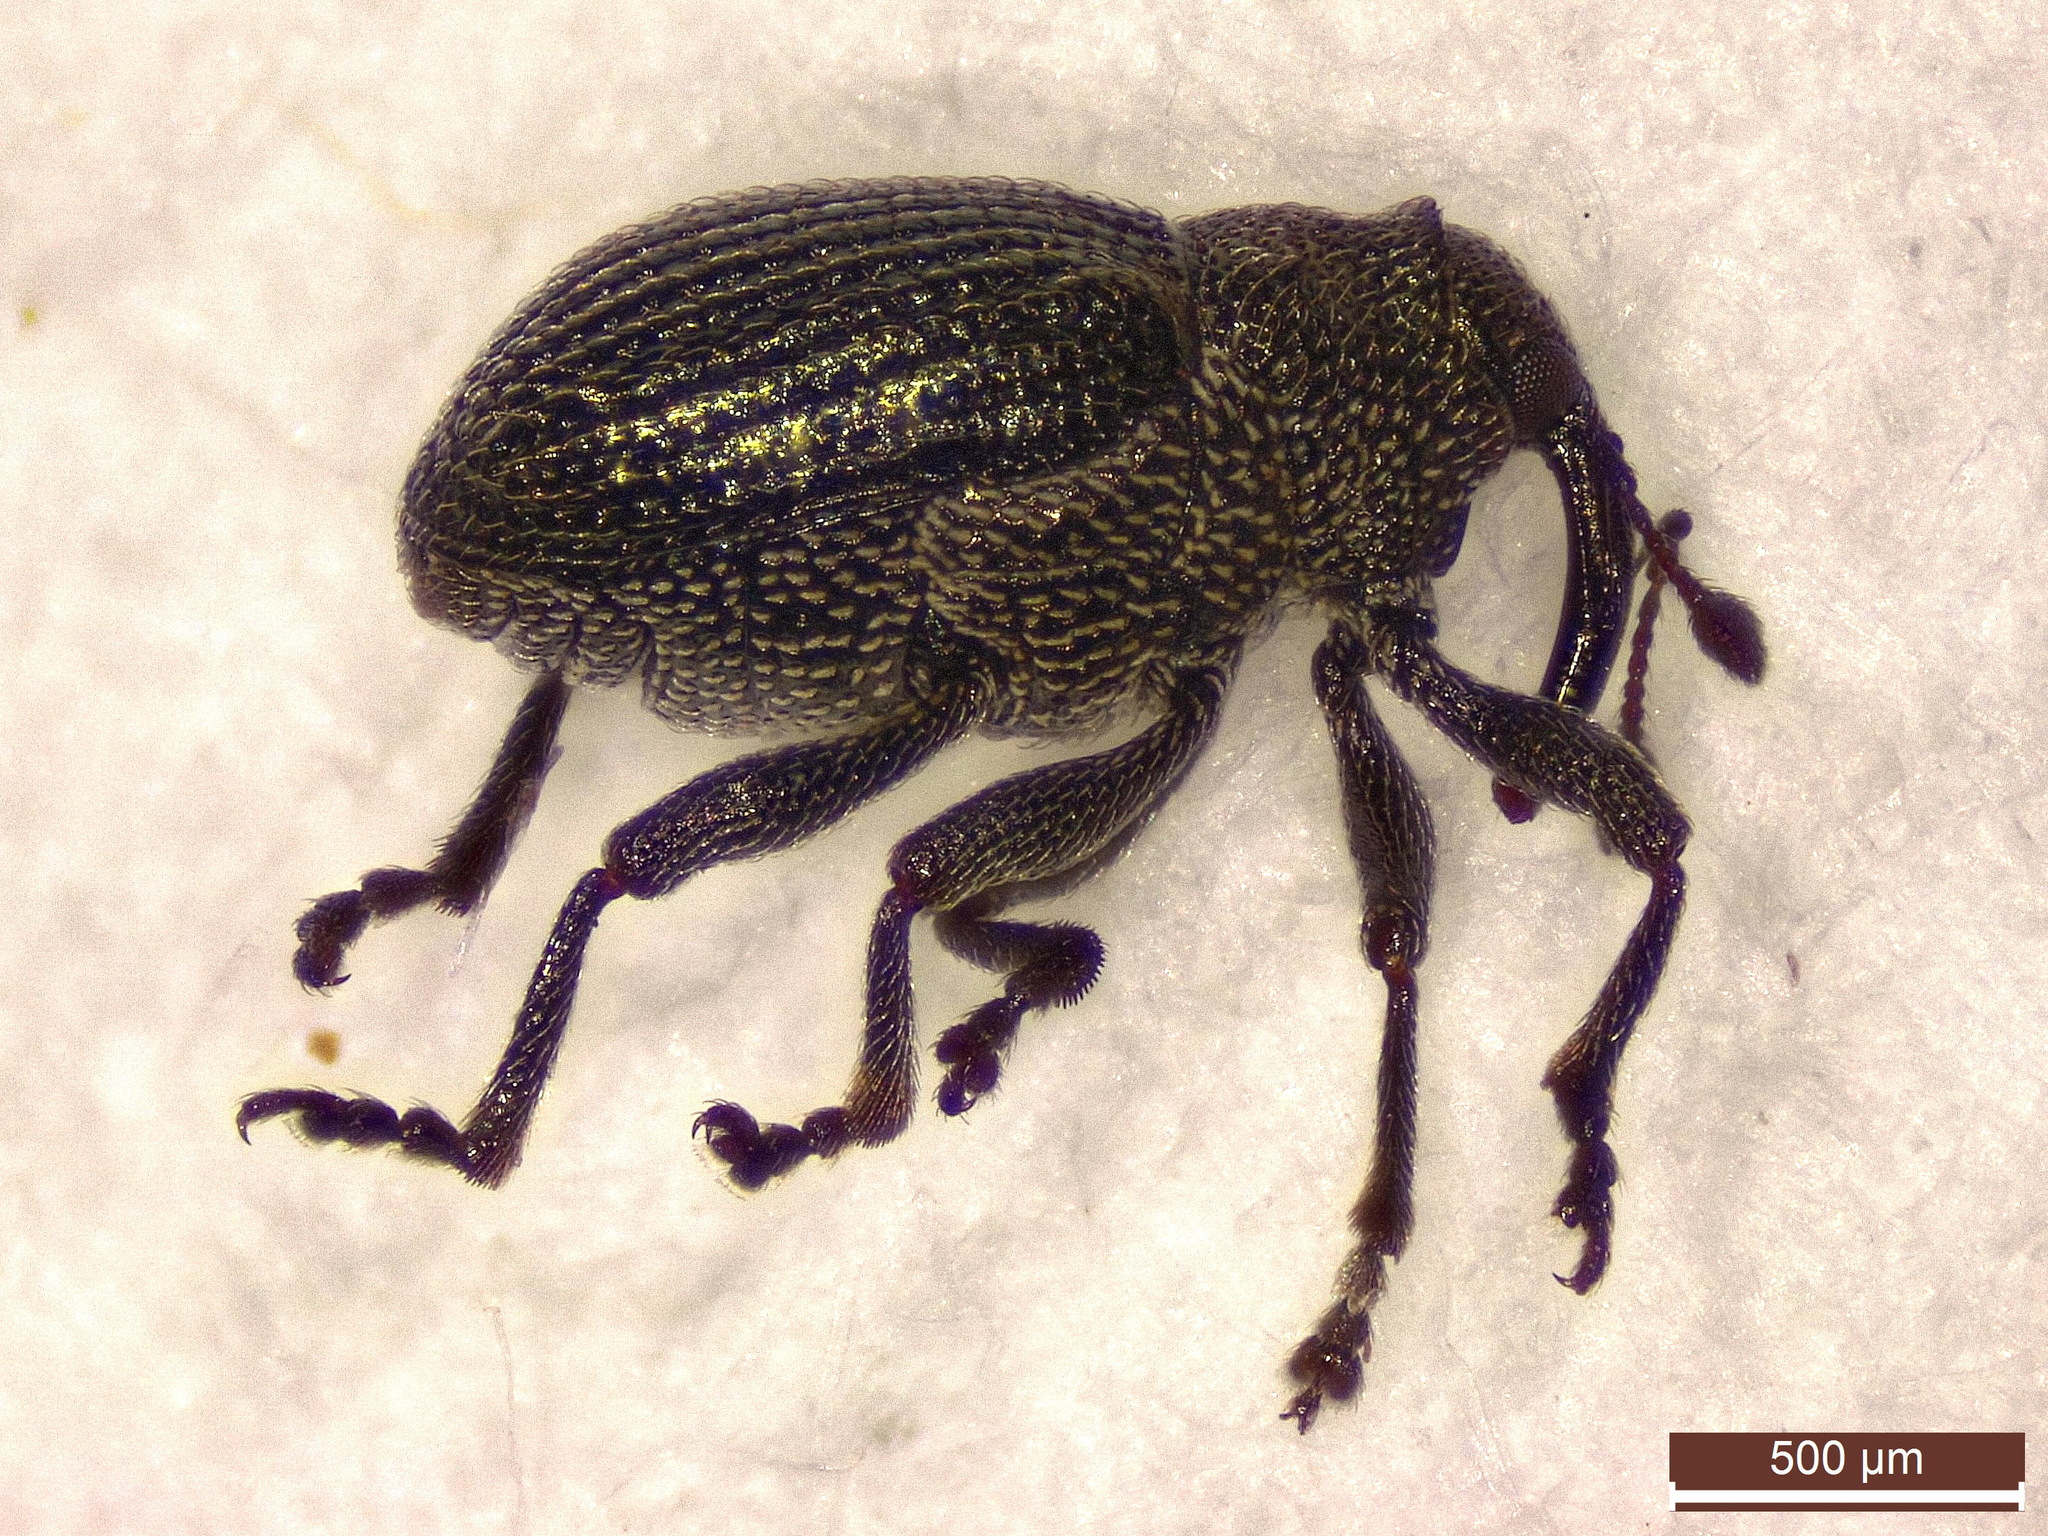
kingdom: Animalia
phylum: Arthropoda
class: Insecta
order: Coleoptera
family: Curculionidae
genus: Ceutorhynchus
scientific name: Ceutorhynchus contractus
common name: Cabbage leaf weevil
